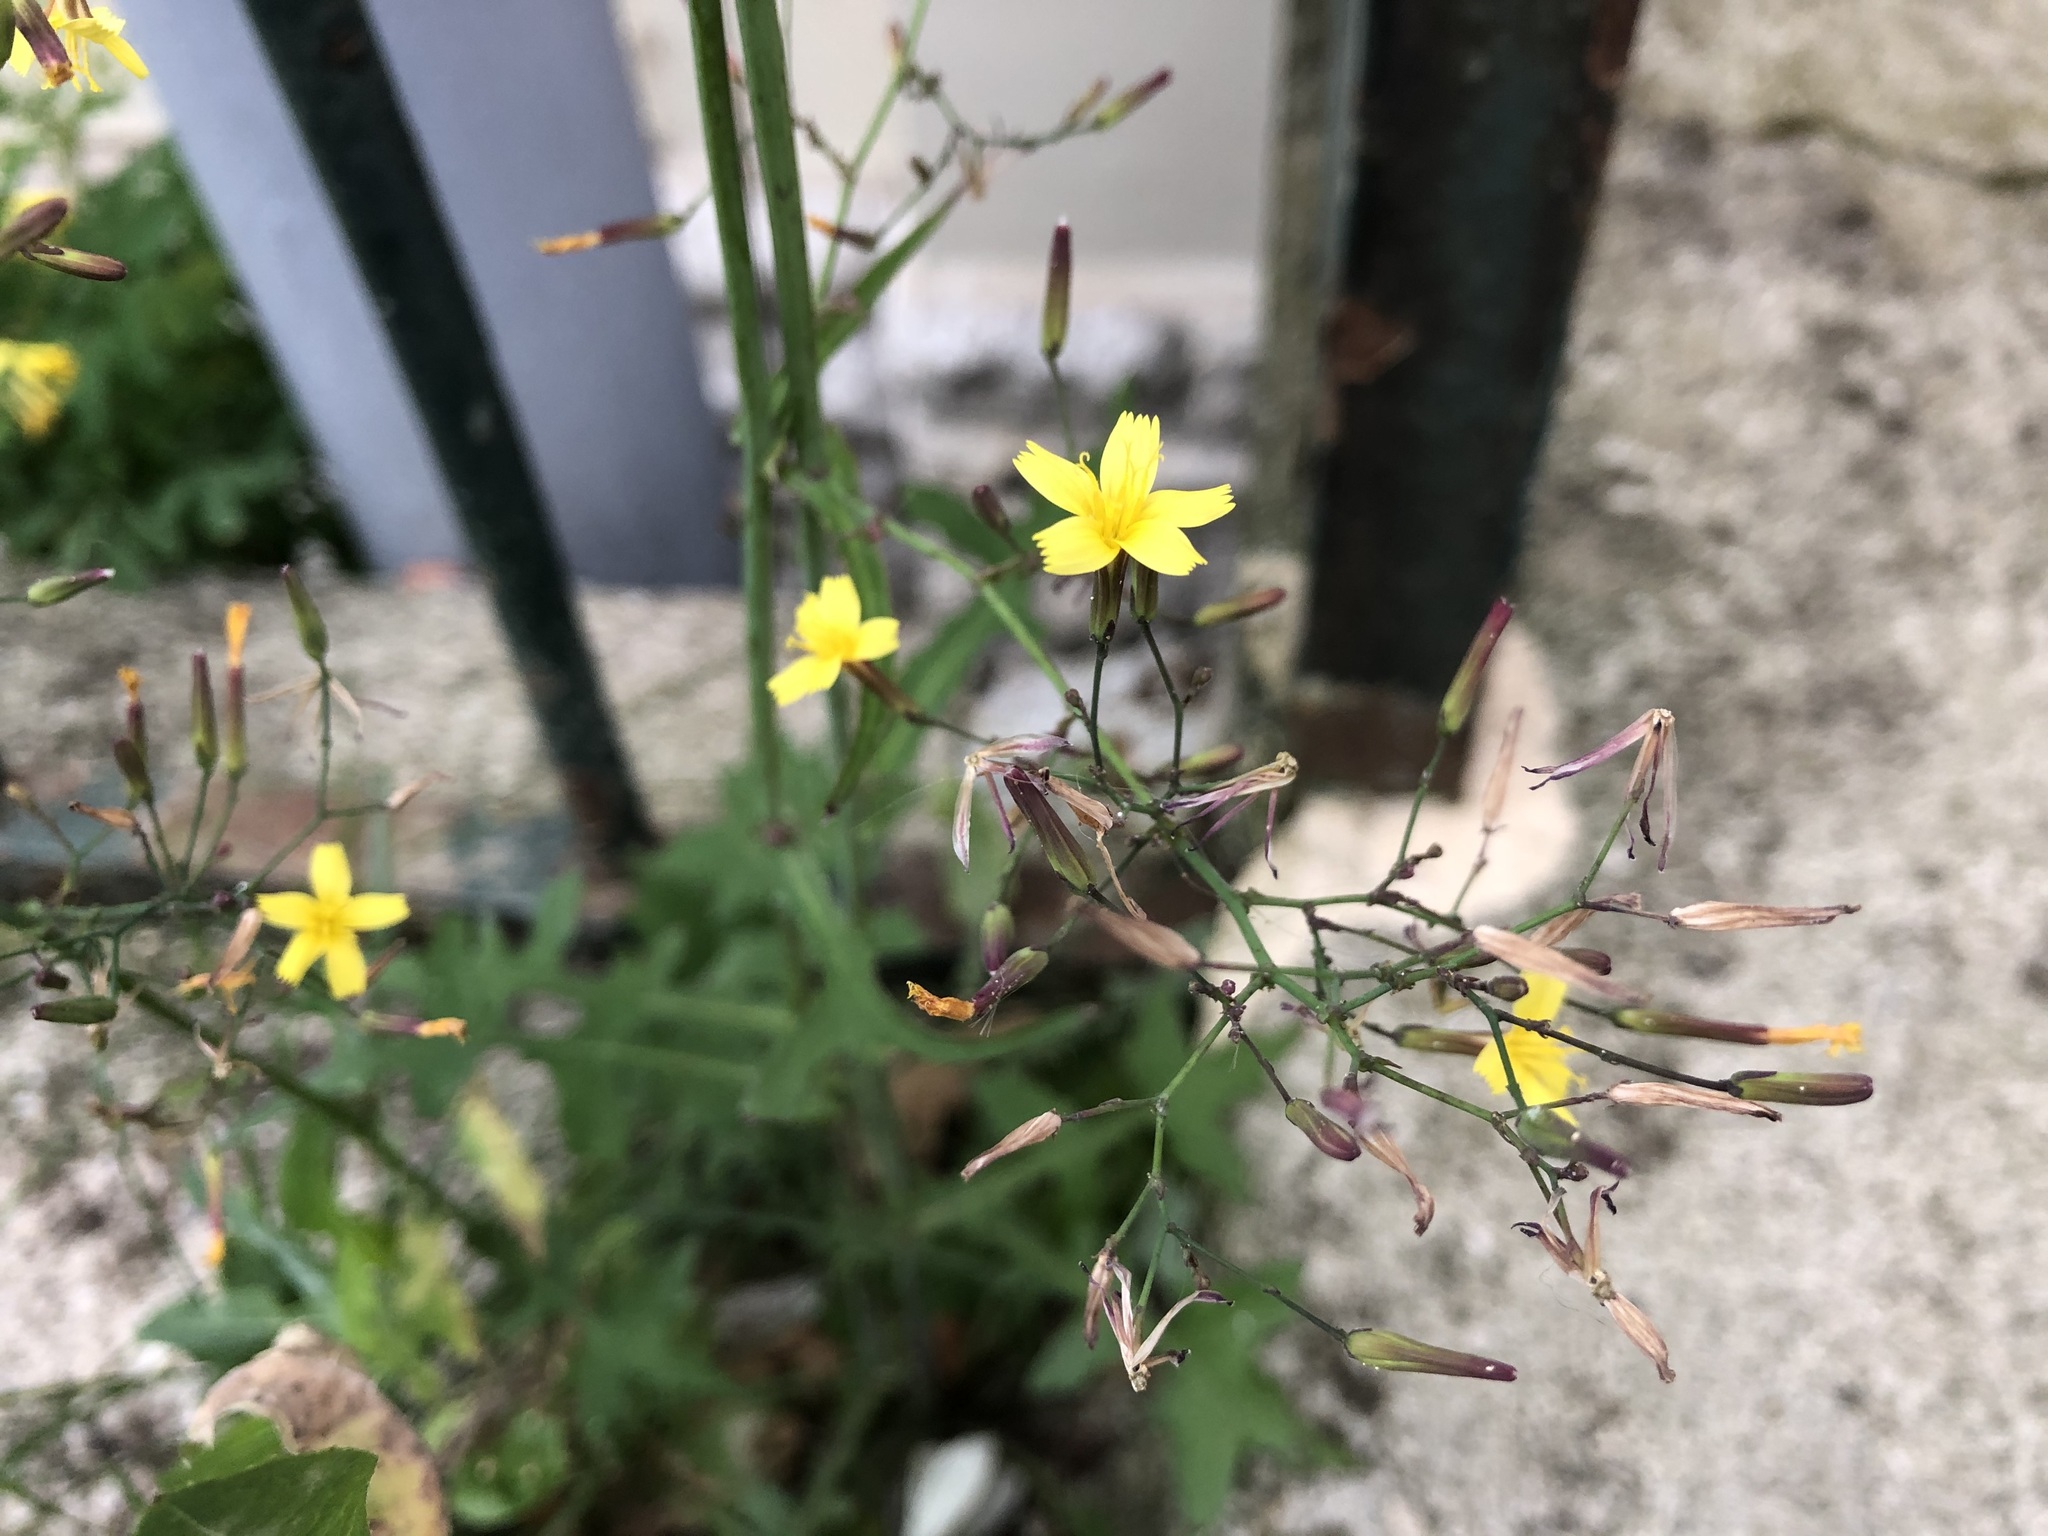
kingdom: Plantae
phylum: Tracheophyta
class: Magnoliopsida
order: Asterales
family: Asteraceae
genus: Mycelis
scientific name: Mycelis muralis
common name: Wall lettuce
